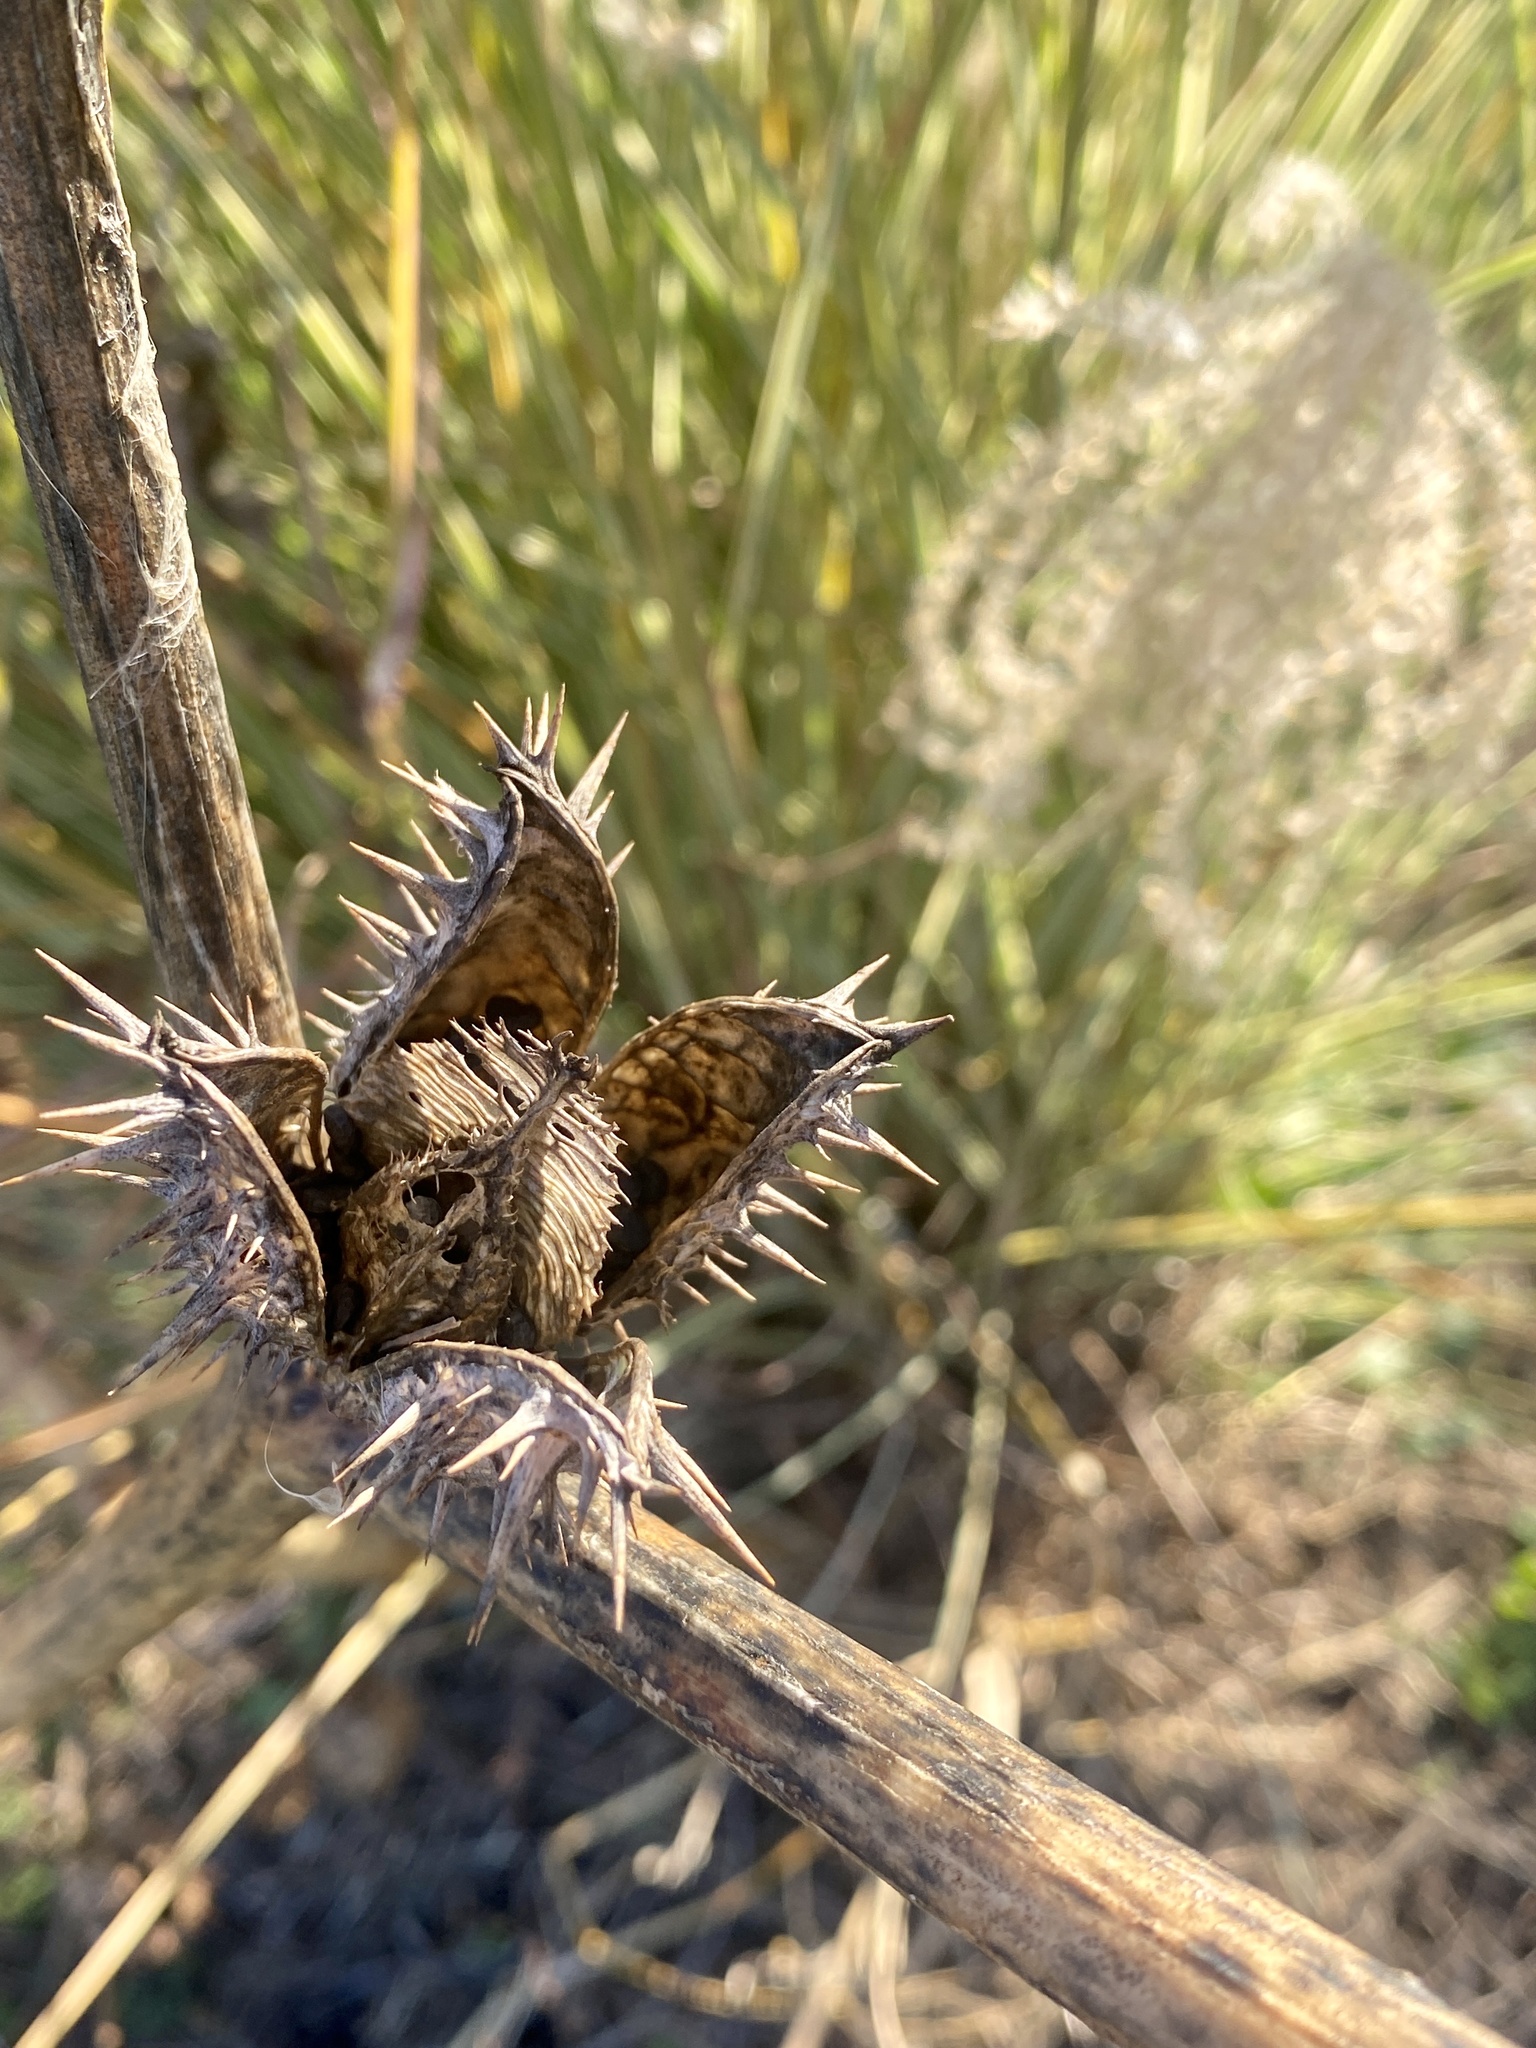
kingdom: Plantae
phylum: Tracheophyta
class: Magnoliopsida
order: Solanales
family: Solanaceae
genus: Datura
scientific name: Datura stramonium
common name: Thorn-apple
